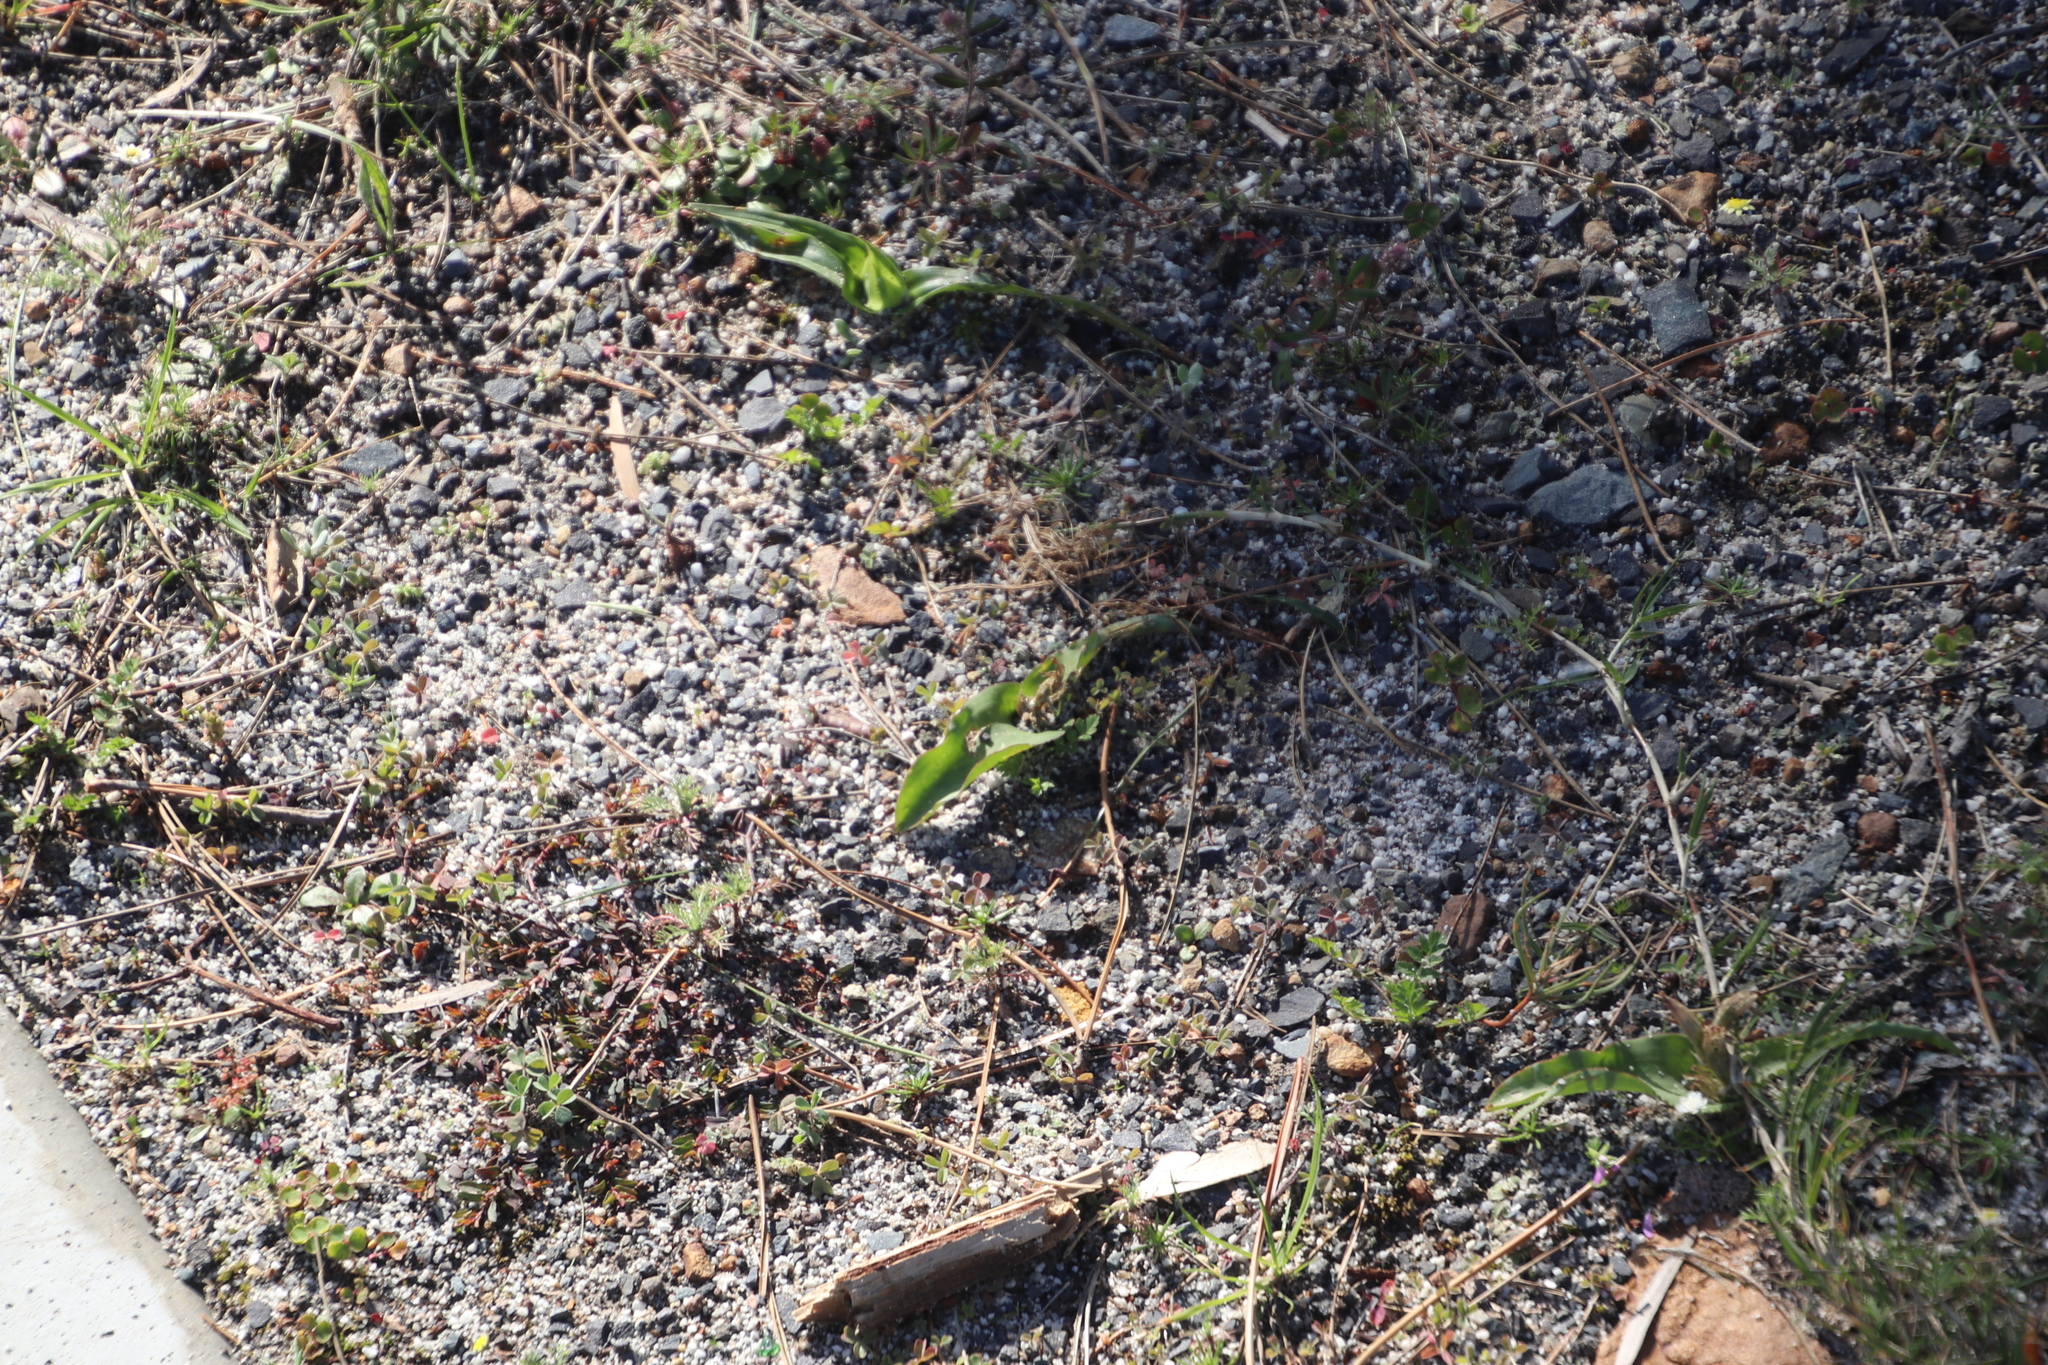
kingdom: Plantae
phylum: Tracheophyta
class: Liliopsida
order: Asparagales
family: Asparagaceae
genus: Lachenalia
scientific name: Lachenalia reflexa
